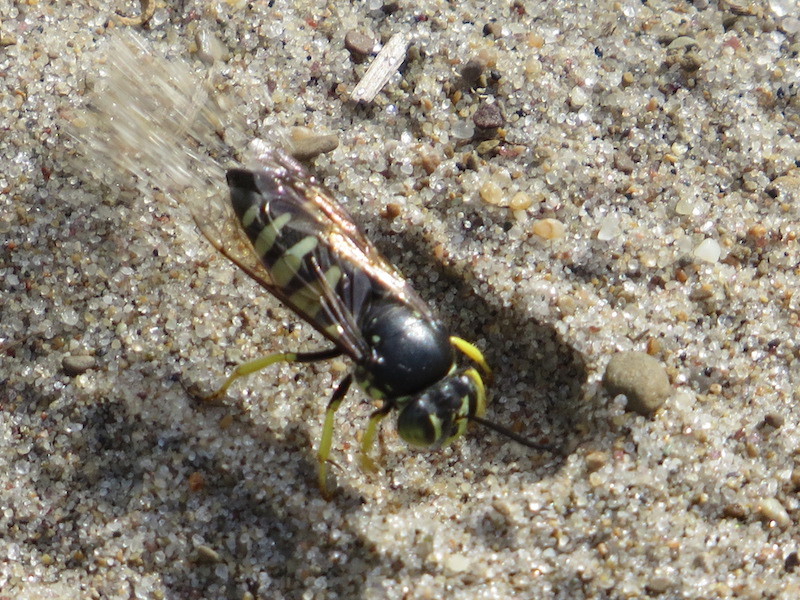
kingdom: Animalia
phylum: Arthropoda
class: Insecta
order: Hymenoptera
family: Crabronidae
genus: Bicyrtes
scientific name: Bicyrtes quadrifasciatus
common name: Four-banded stink bug hunter wasp
